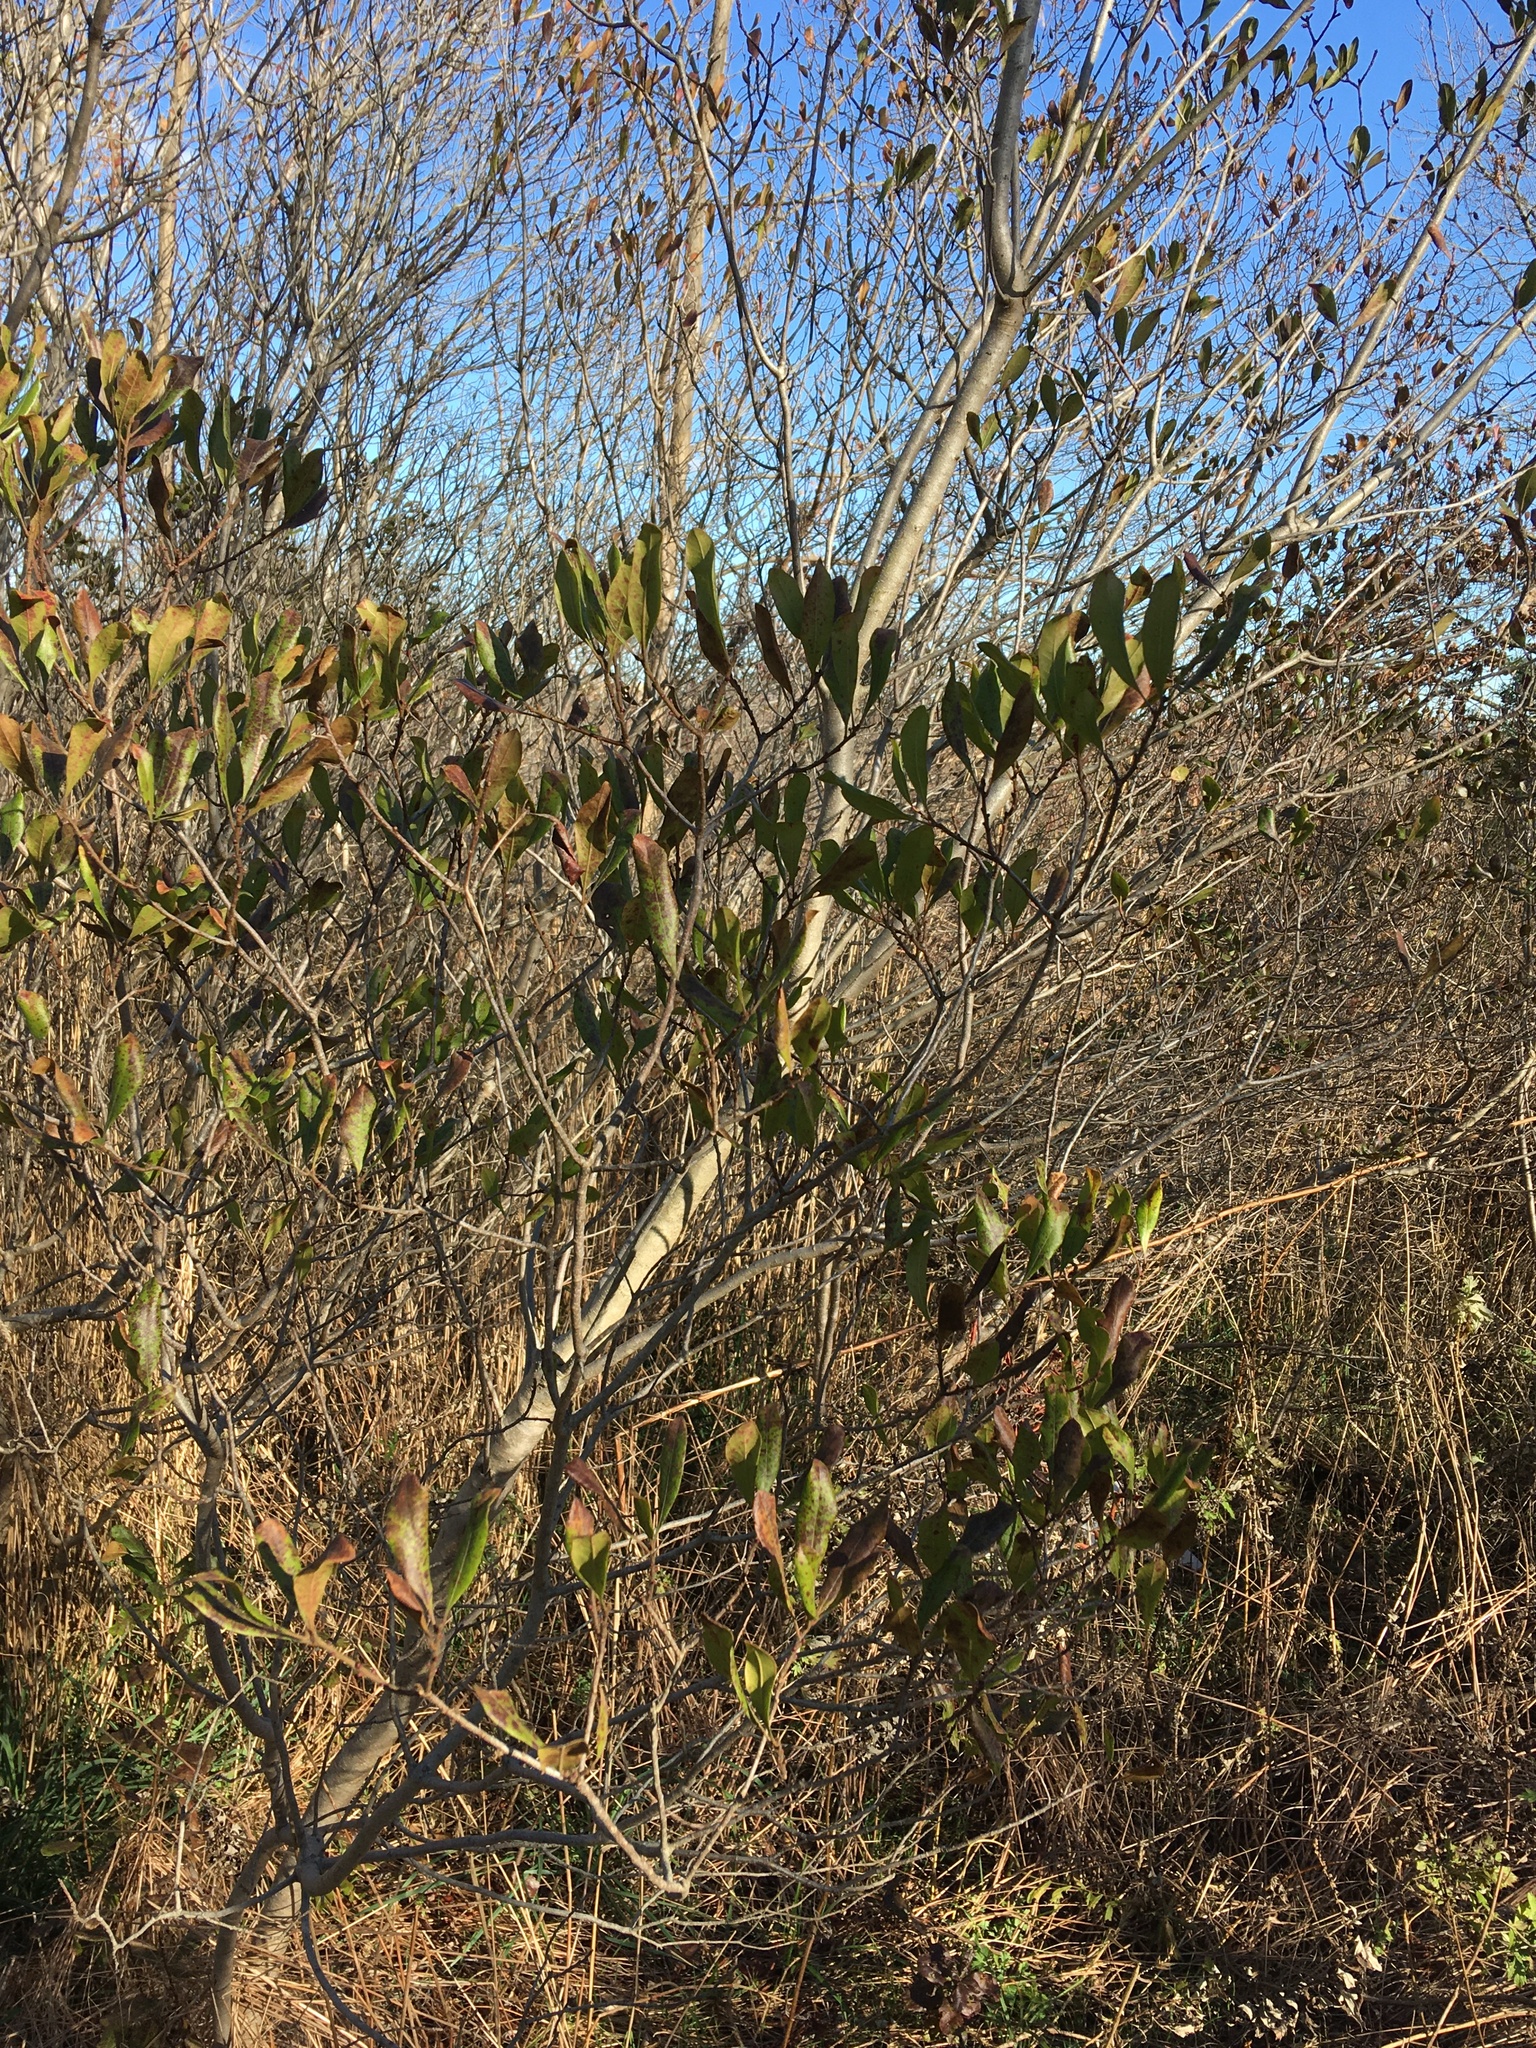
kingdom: Plantae
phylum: Tracheophyta
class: Magnoliopsida
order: Fagales
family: Myricaceae
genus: Morella
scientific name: Morella pensylvanica
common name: Northern bayberry
